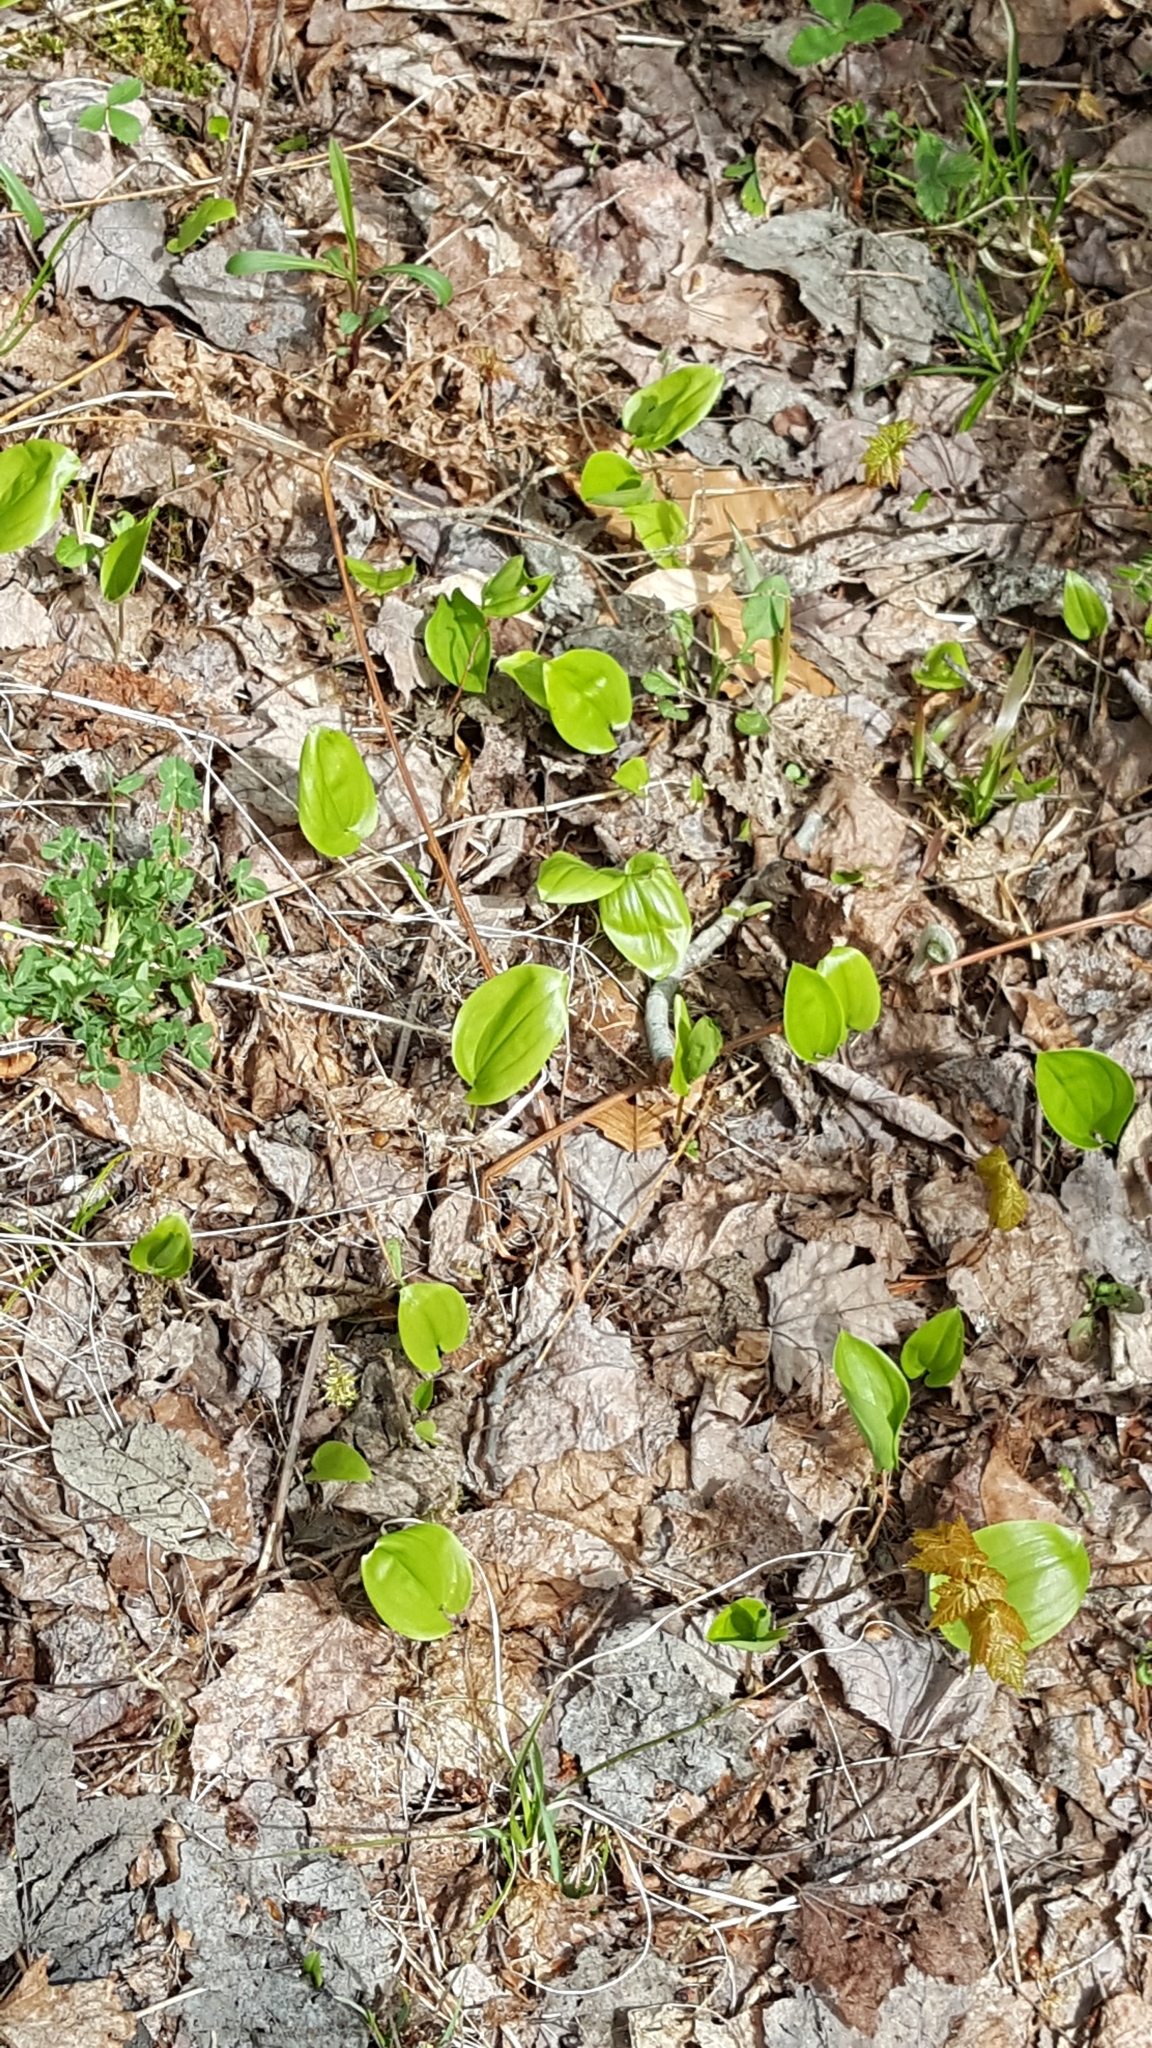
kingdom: Plantae
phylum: Tracheophyta
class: Liliopsida
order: Asparagales
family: Asparagaceae
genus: Maianthemum
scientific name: Maianthemum canadense
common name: False lily-of-the-valley
